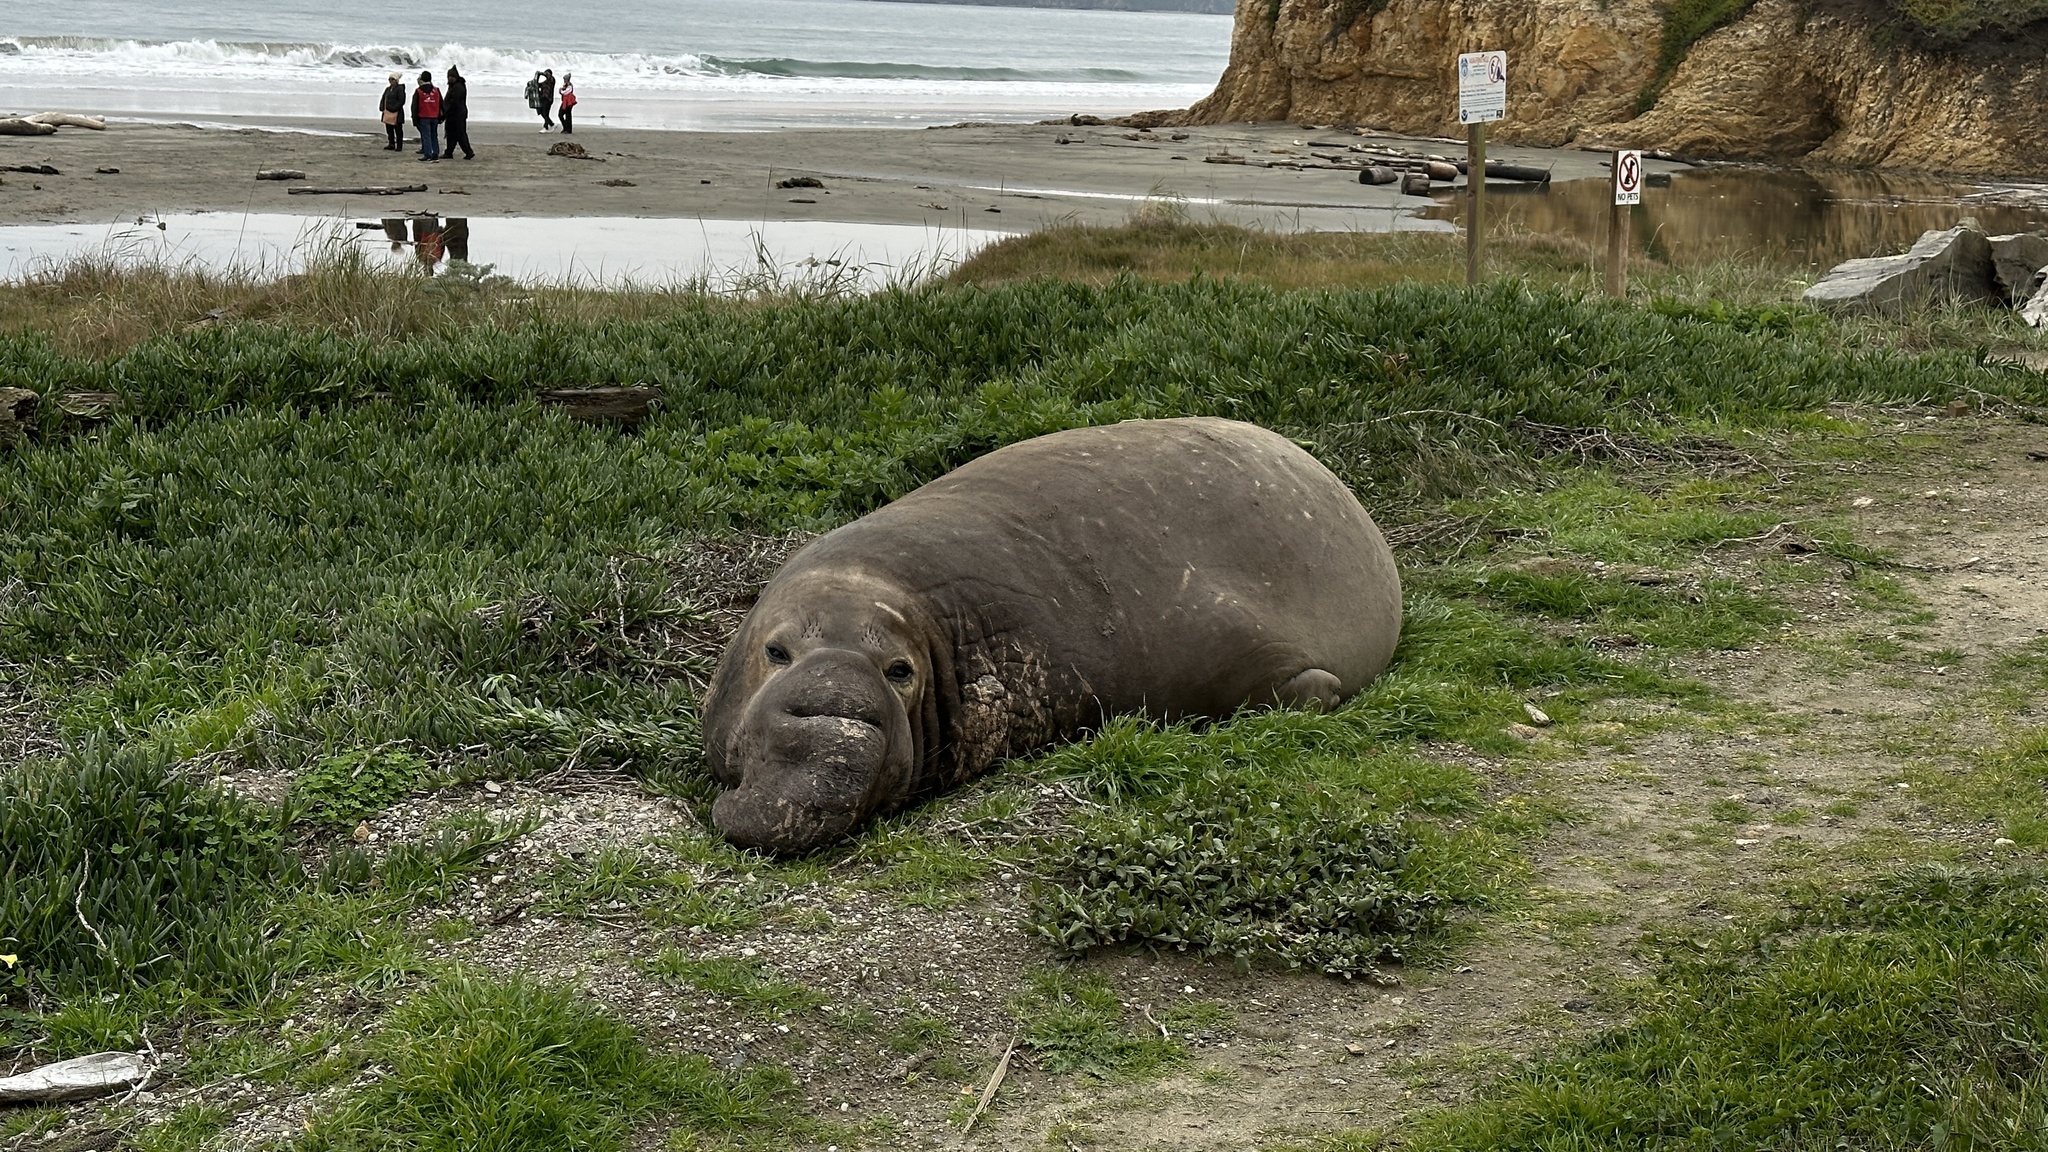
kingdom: Animalia
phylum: Chordata
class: Mammalia
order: Carnivora
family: Phocidae
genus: Mirounga
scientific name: Mirounga angustirostris
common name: Northern elephant seal
